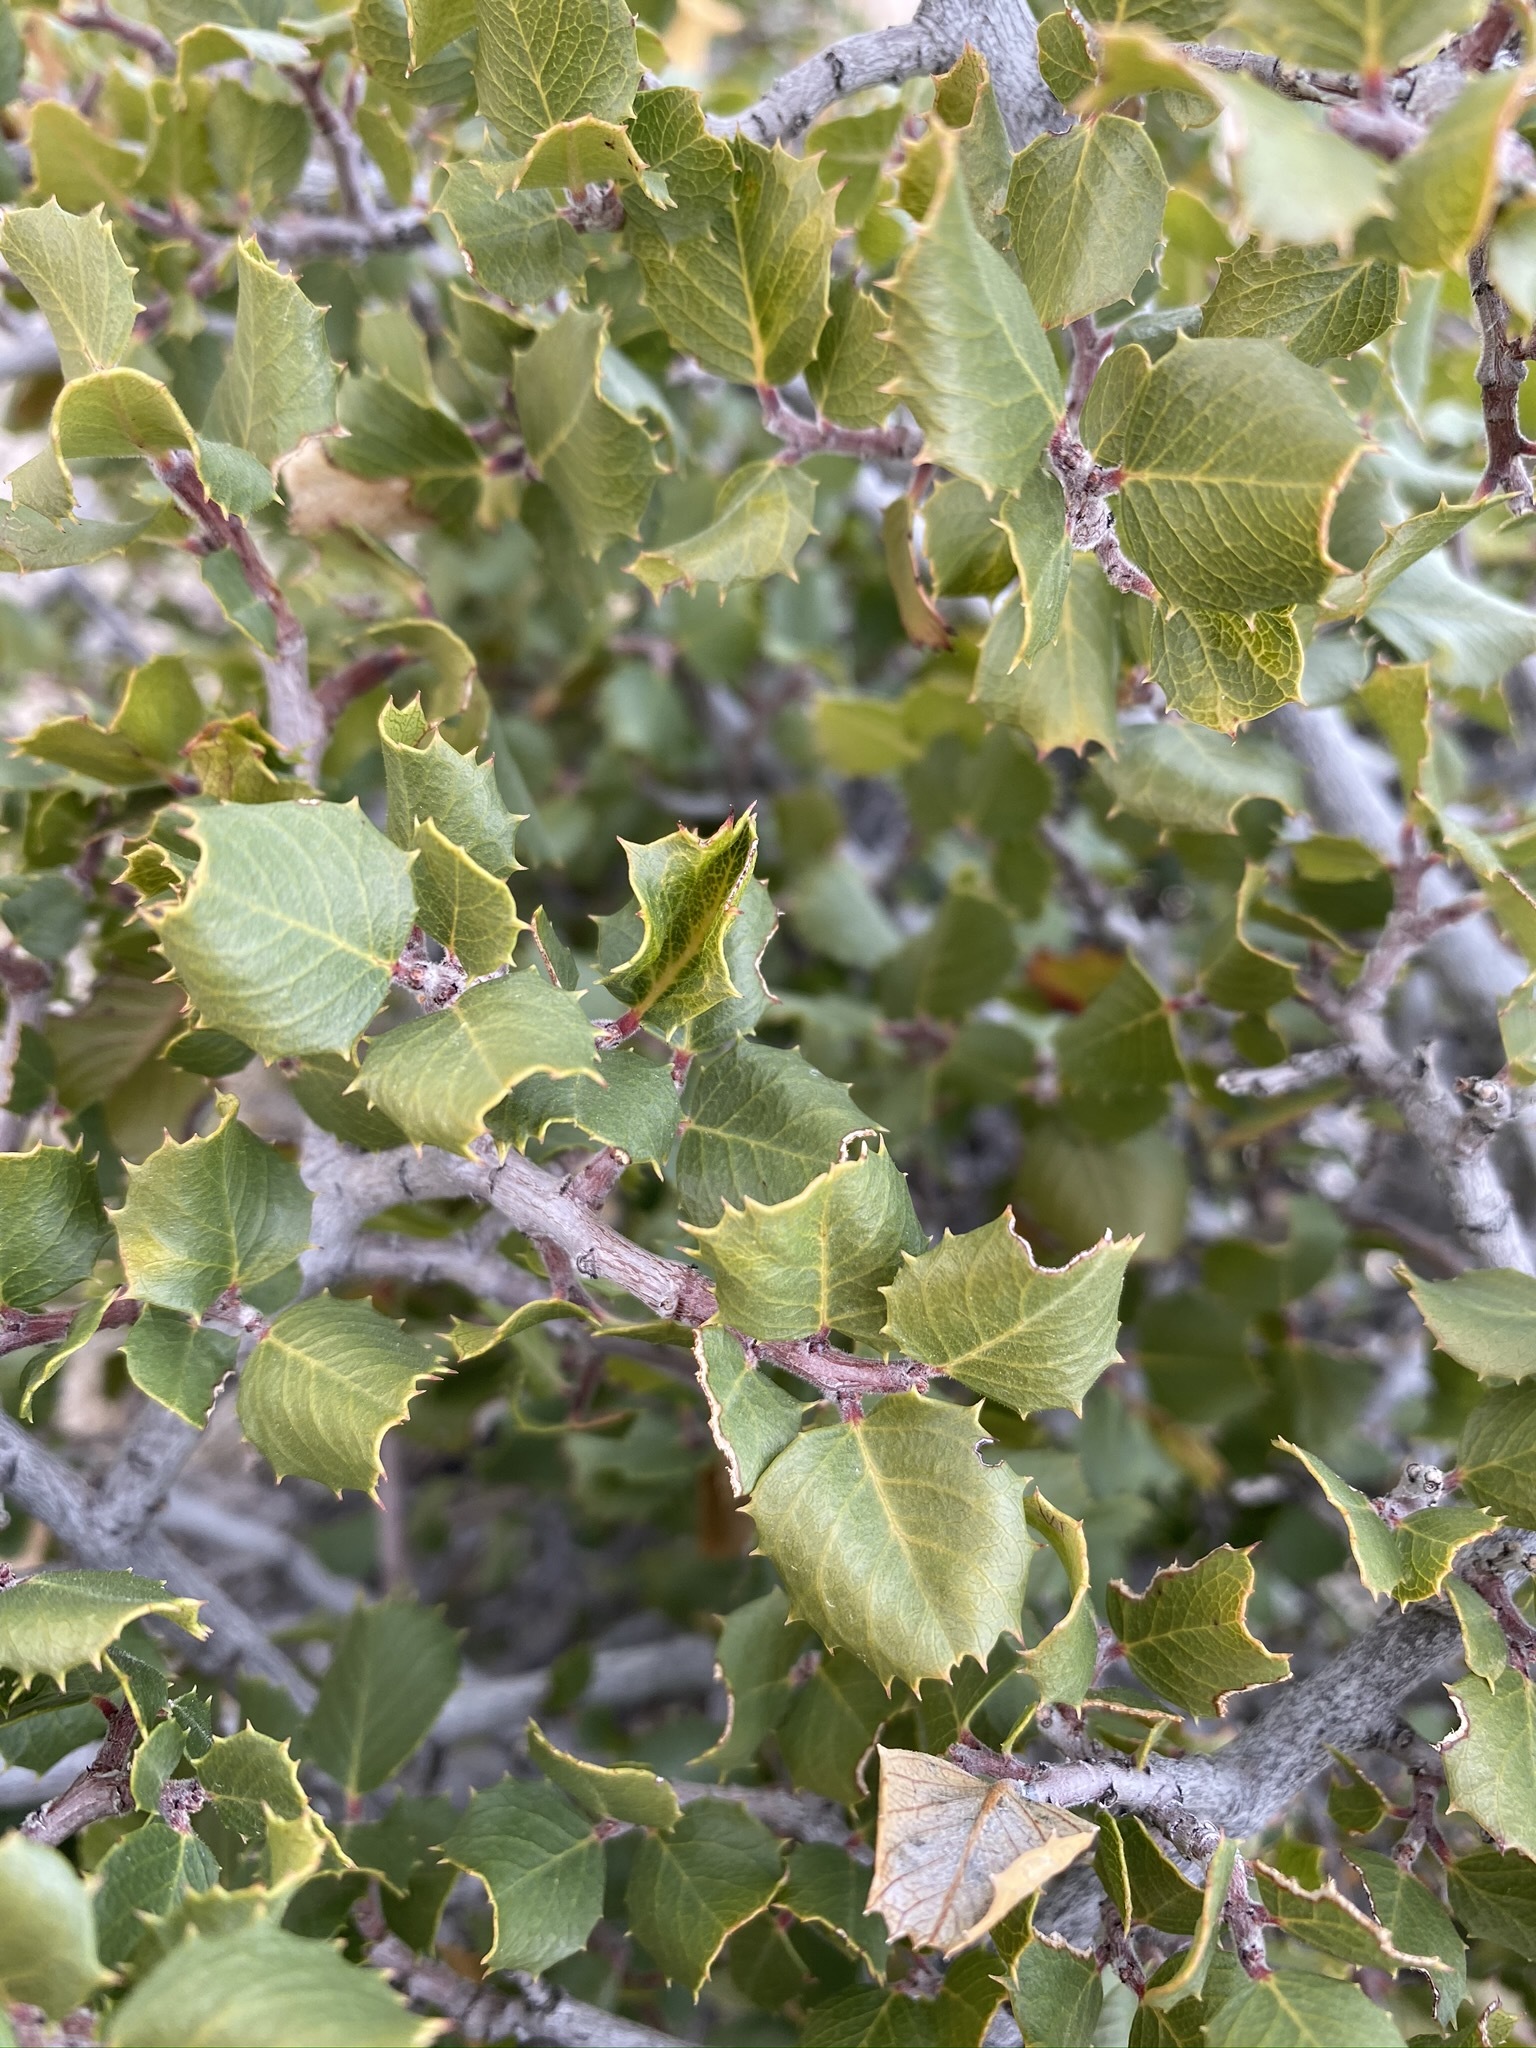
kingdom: Plantae
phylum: Tracheophyta
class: Magnoliopsida
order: Rosales
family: Rhamnaceae
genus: Endotropis
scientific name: Endotropis crocea
